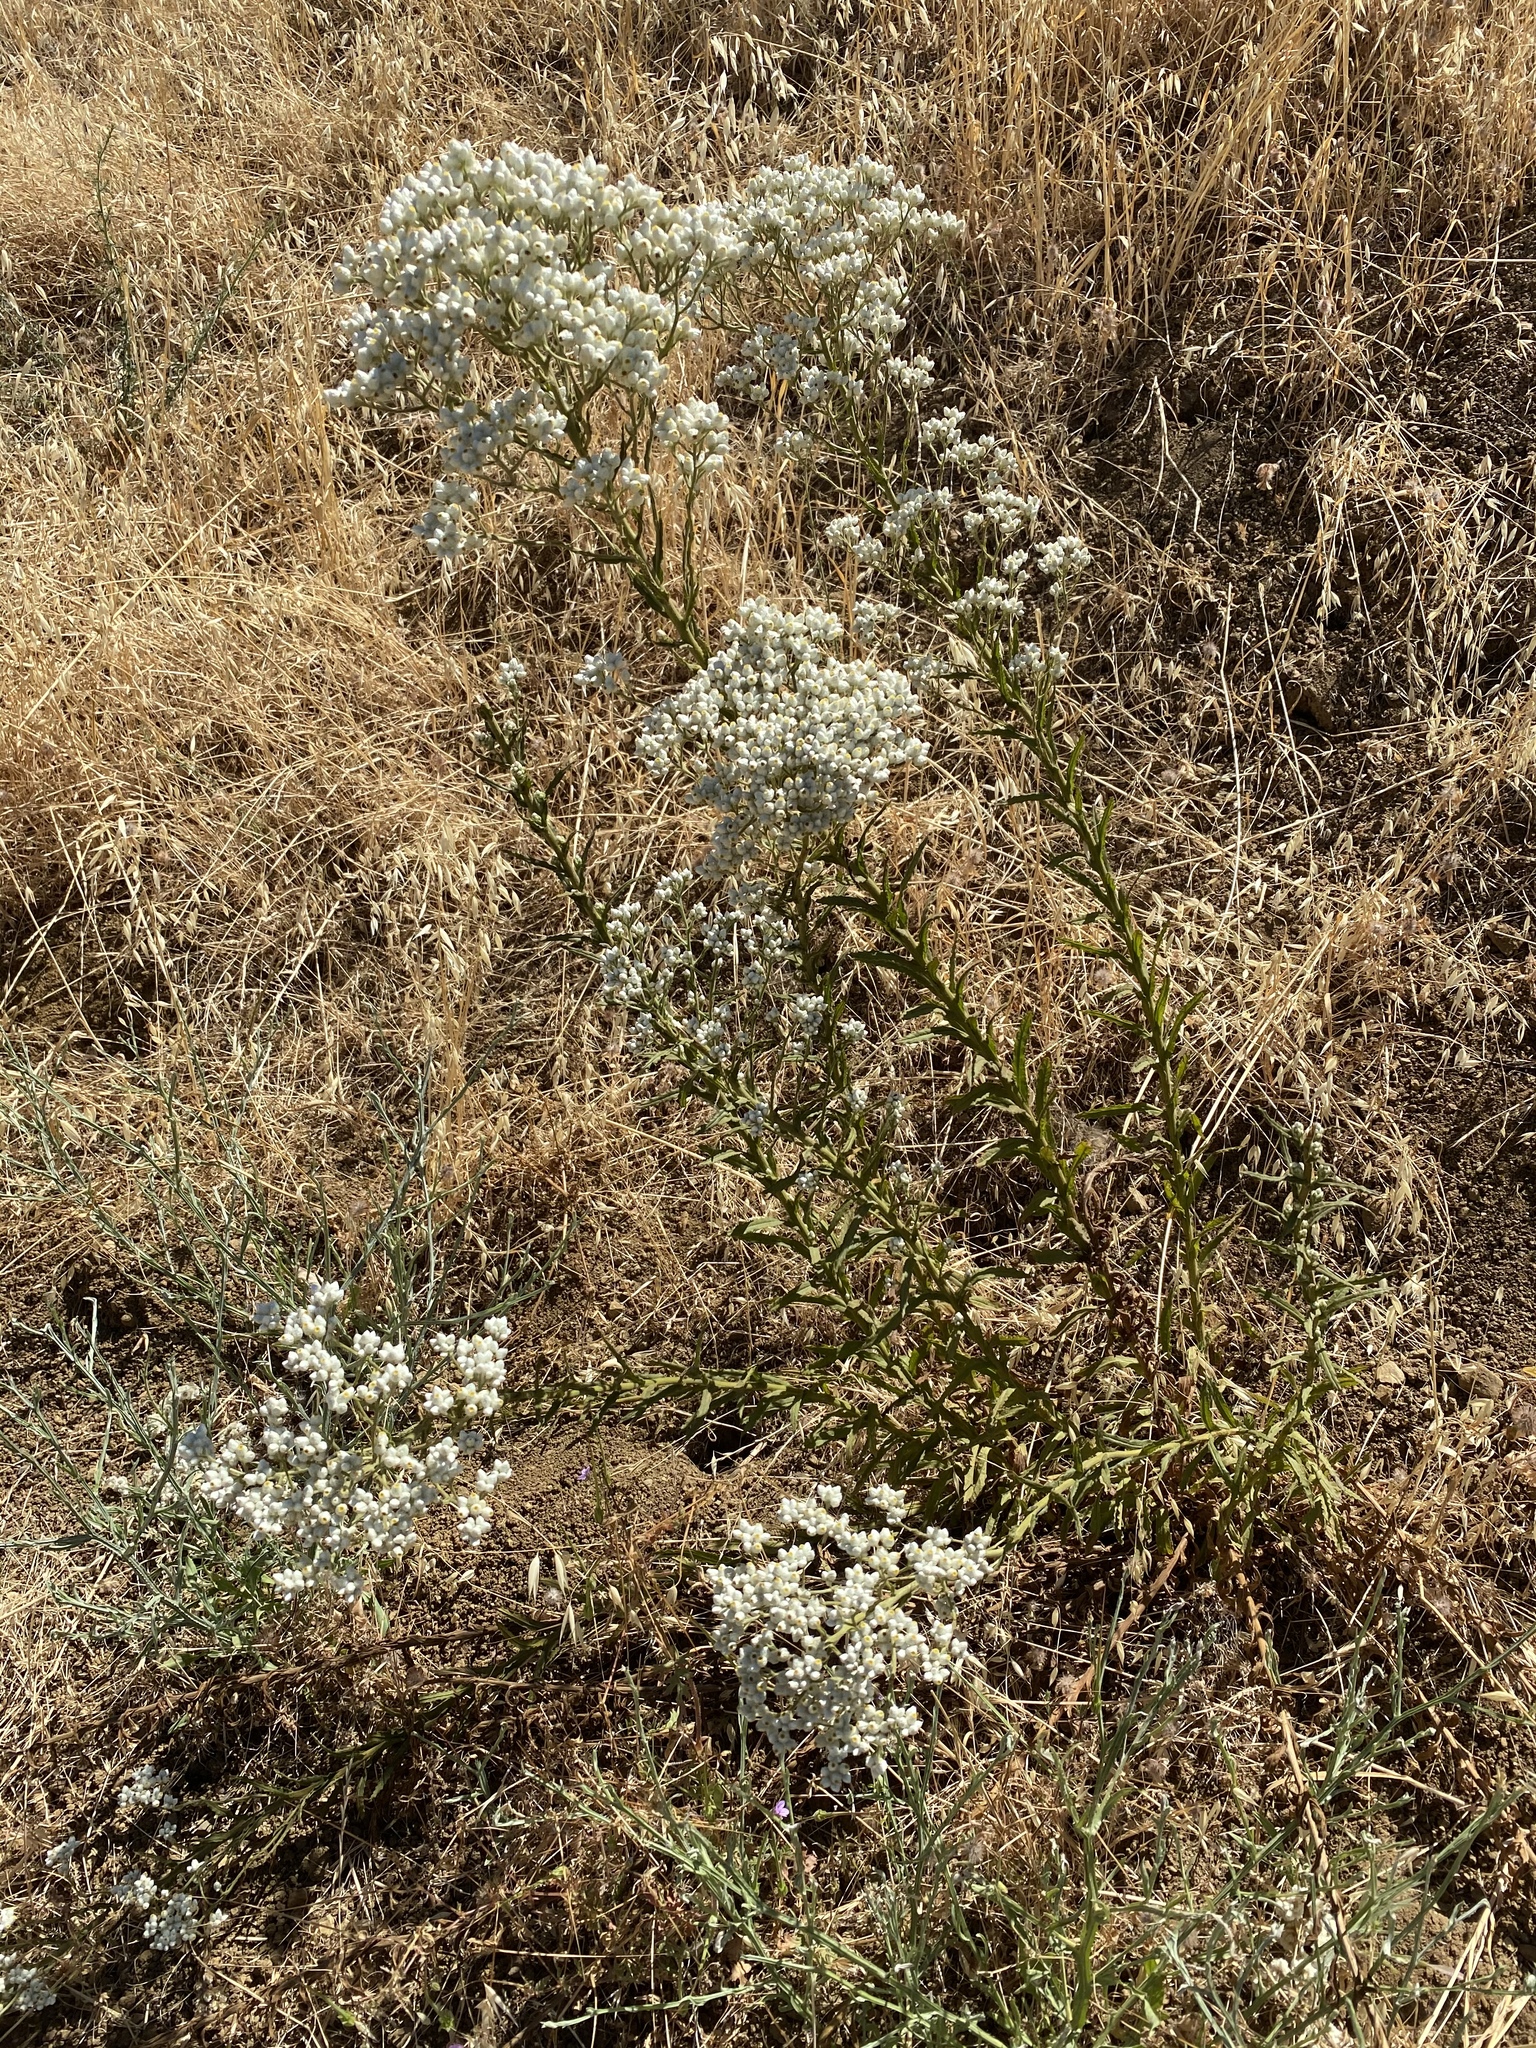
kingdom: Plantae
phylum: Tracheophyta
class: Magnoliopsida
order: Asterales
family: Asteraceae
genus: Pseudognaphalium
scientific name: Pseudognaphalium californicum
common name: California rabbit-tobacco
